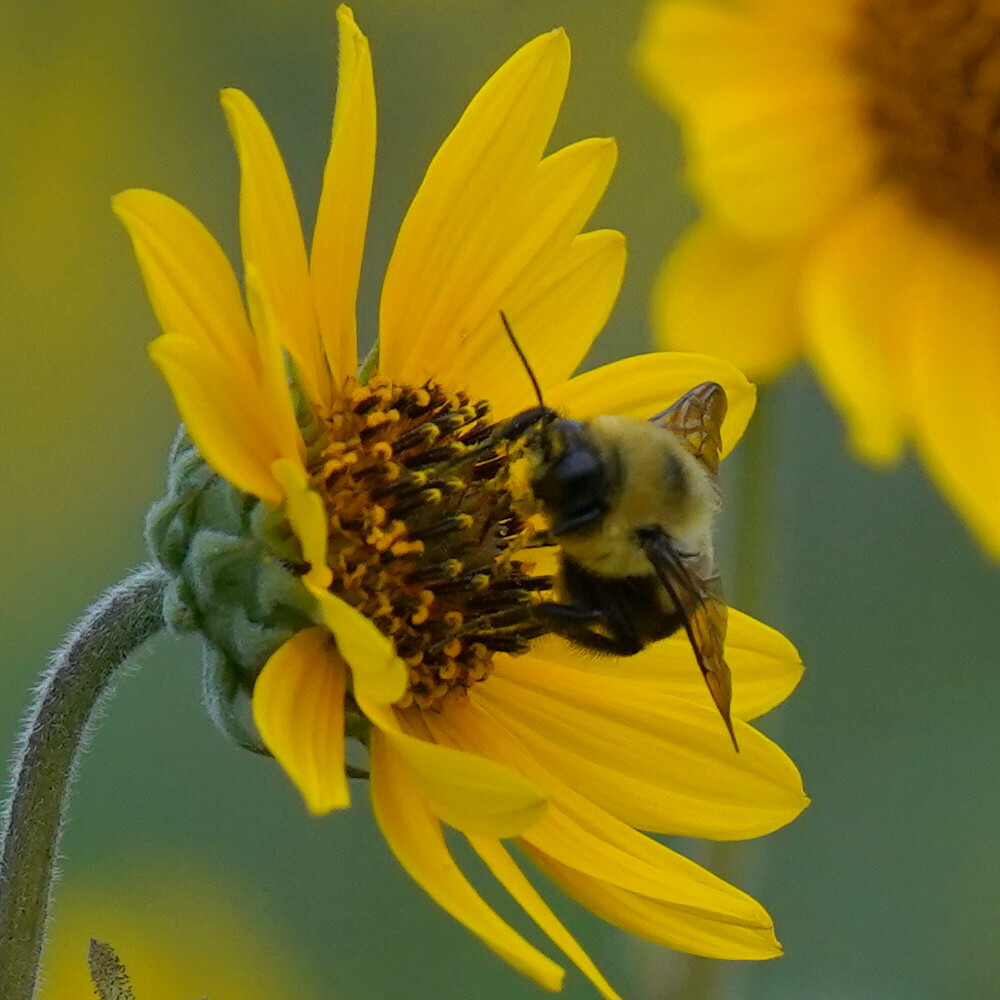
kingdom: Animalia
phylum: Arthropoda
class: Insecta
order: Hymenoptera
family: Apidae
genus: Bombus
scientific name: Bombus griseocollis
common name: Brown-belted bumble bee
